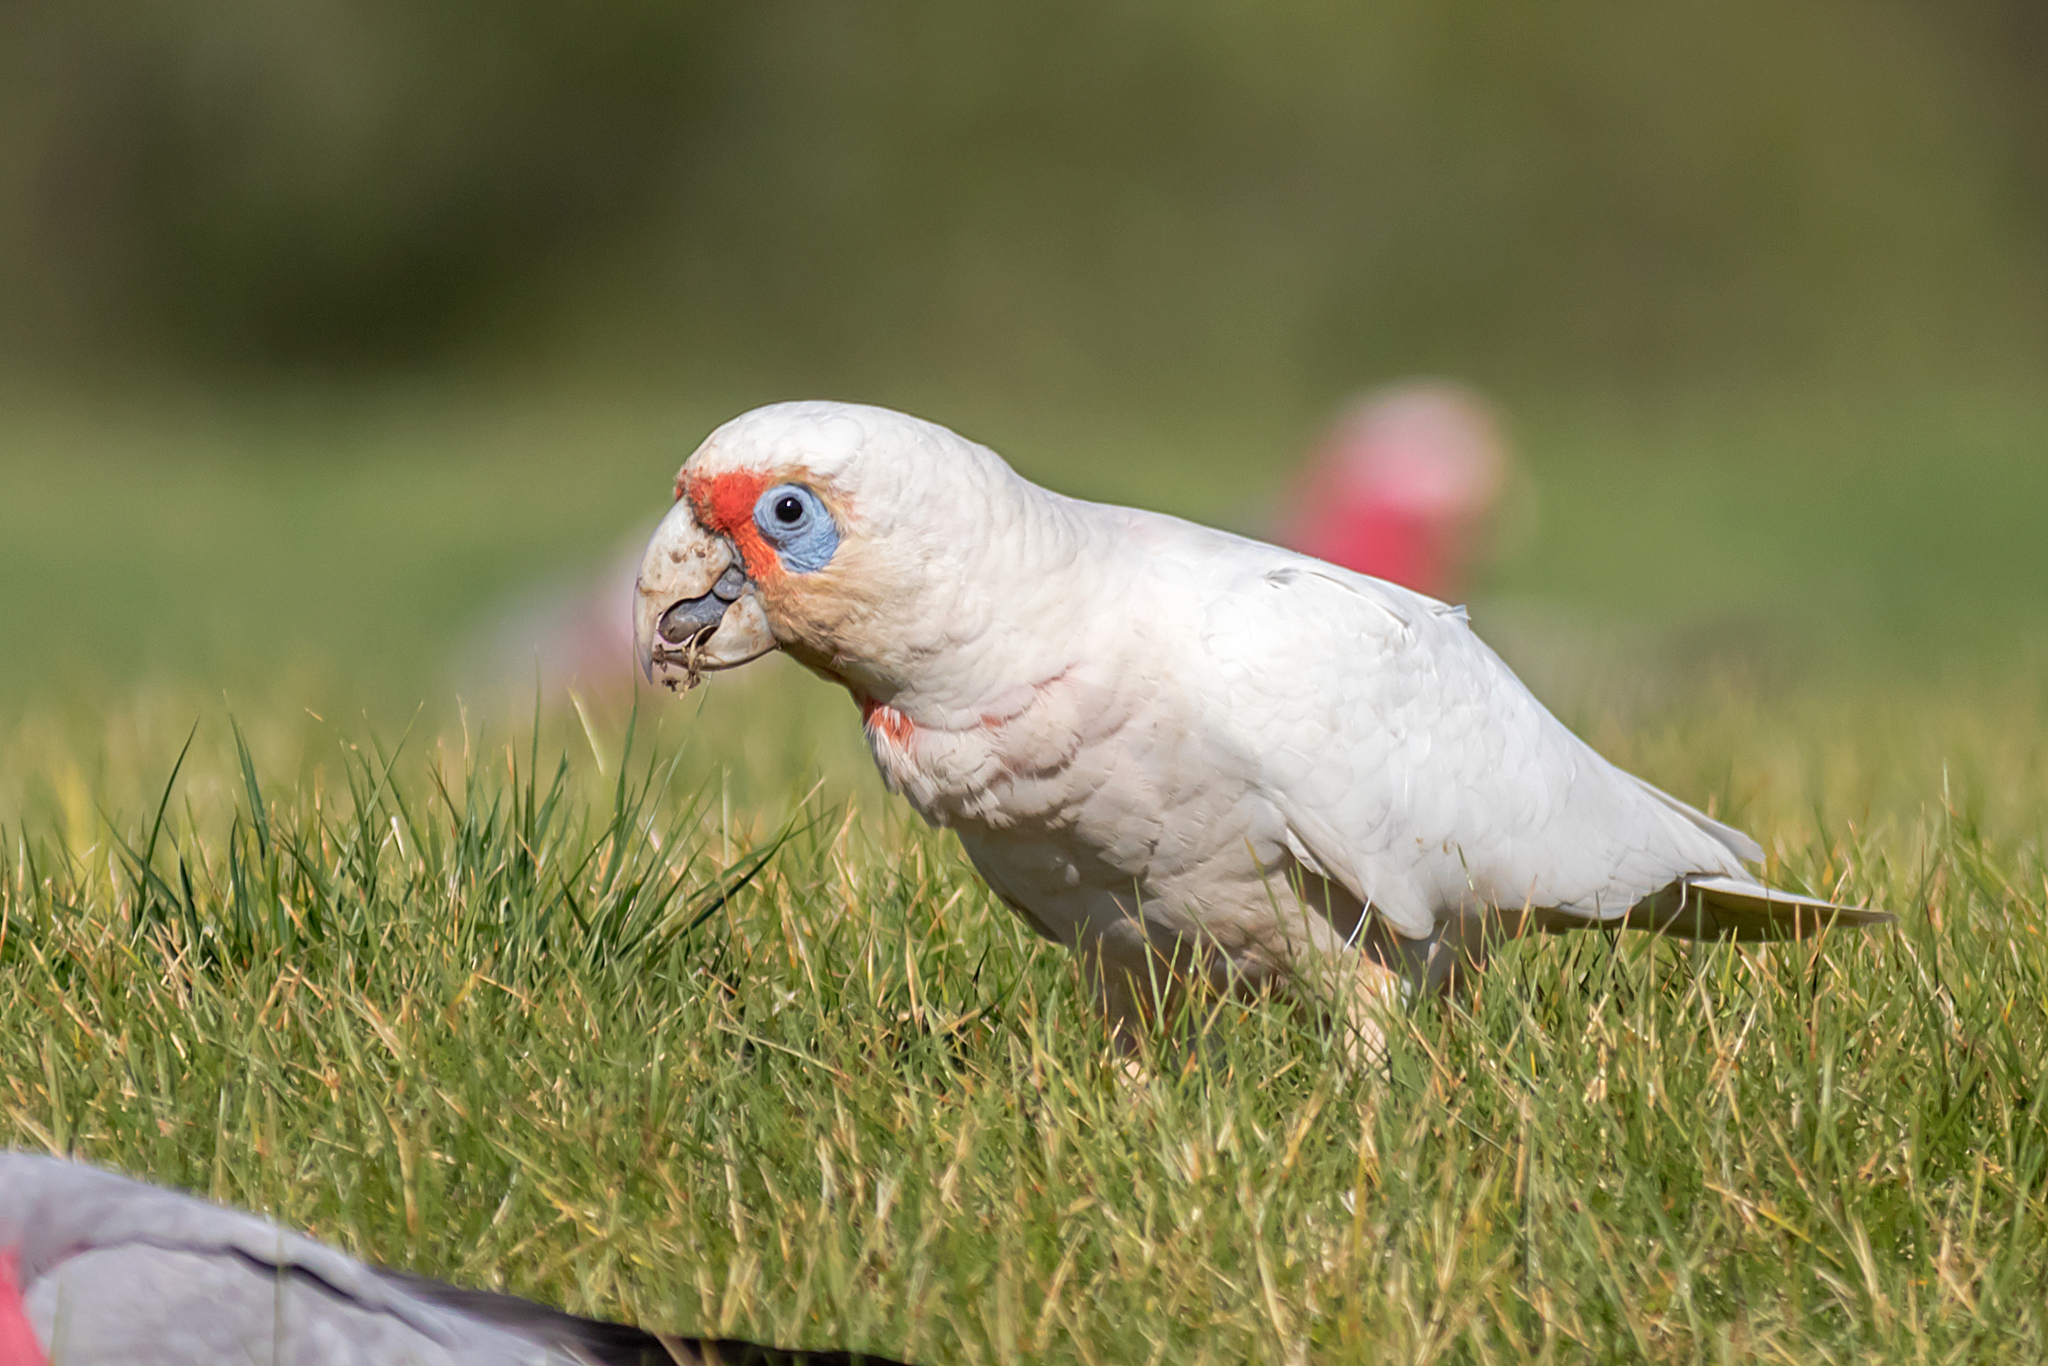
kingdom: Animalia
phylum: Chordata
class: Aves
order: Psittaciformes
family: Psittacidae
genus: Cacatua
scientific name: Cacatua tenuirostris
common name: Long-billed corella
